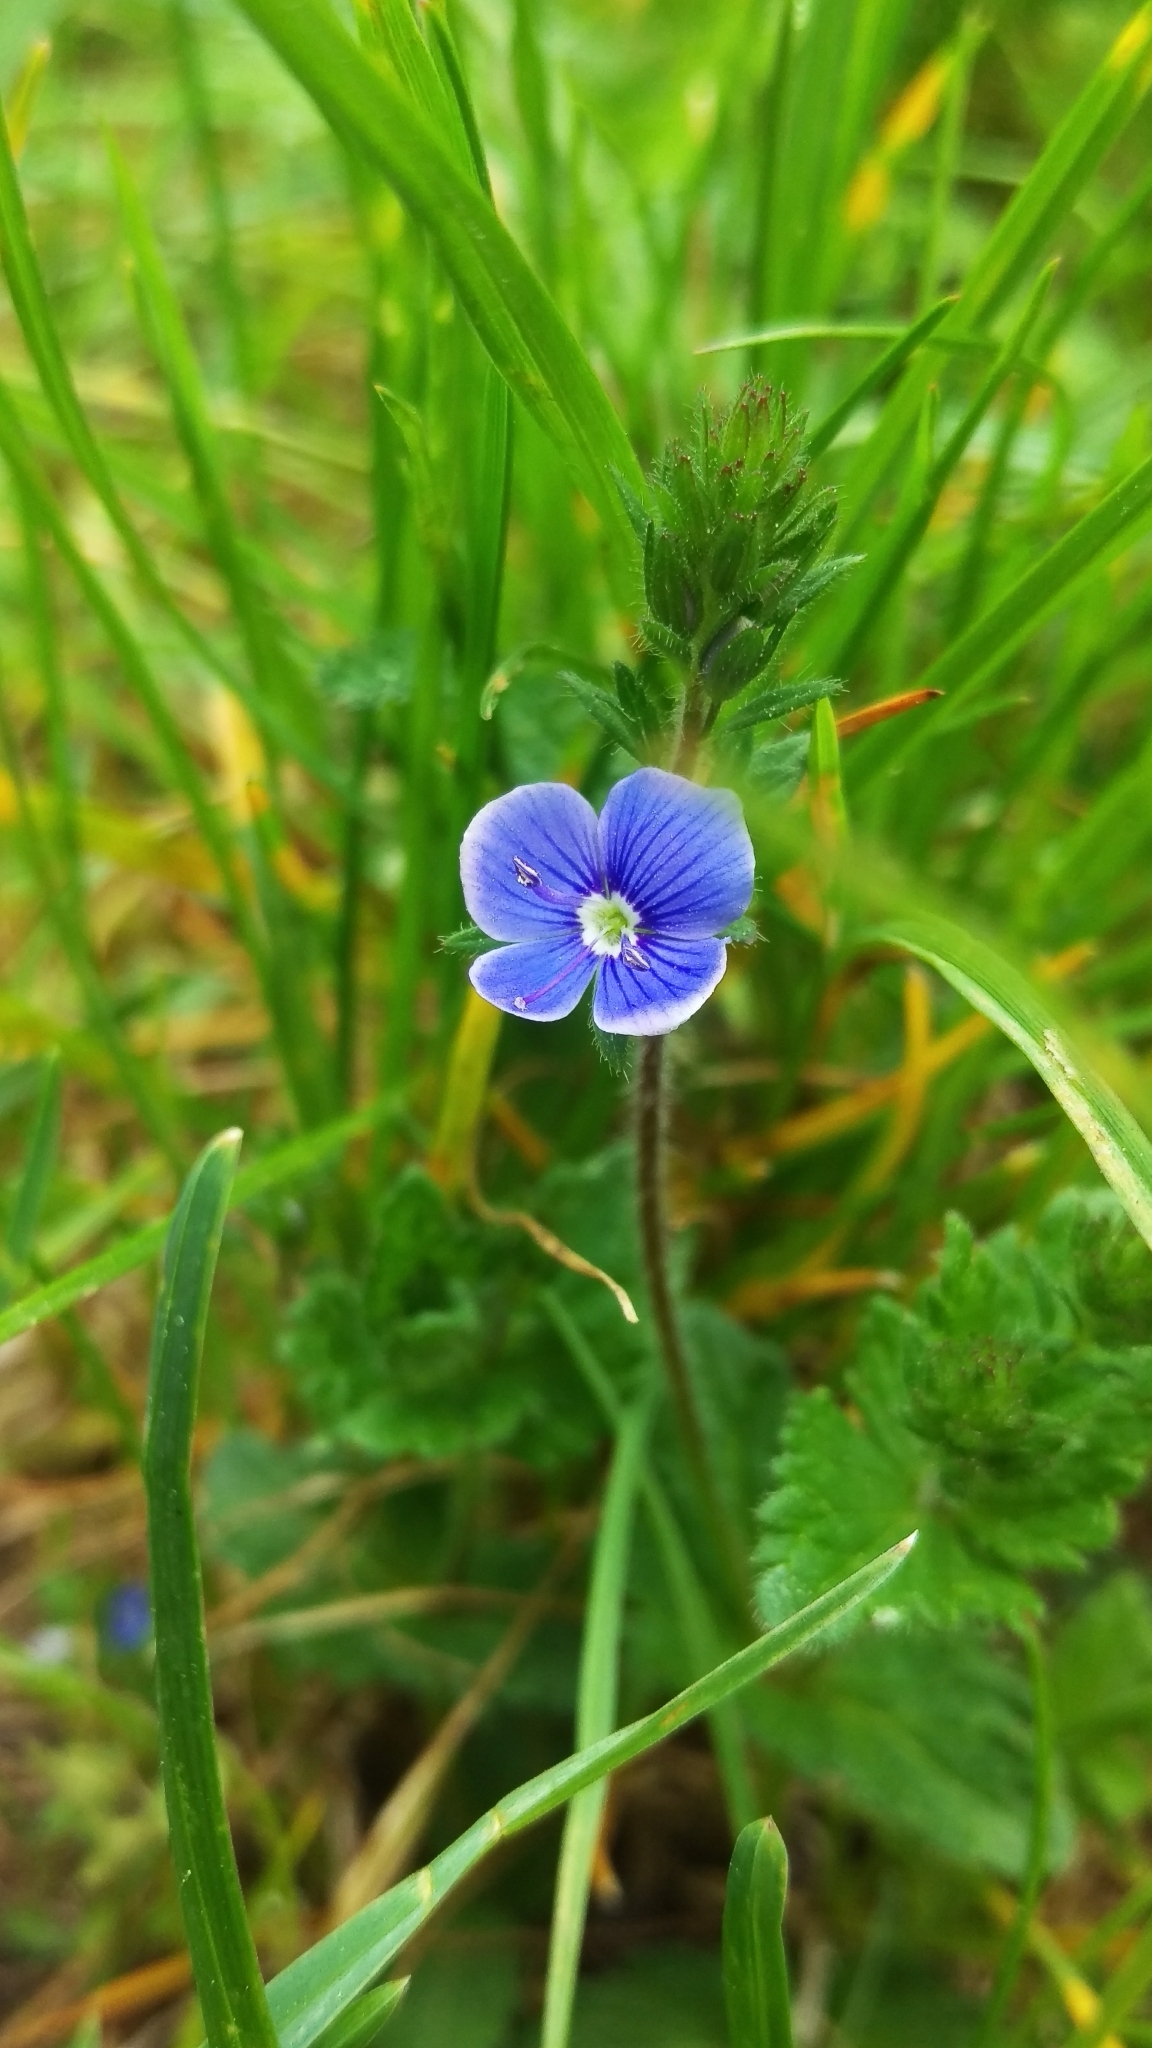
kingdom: Plantae
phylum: Tracheophyta
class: Magnoliopsida
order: Lamiales
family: Plantaginaceae
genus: Veronica
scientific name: Veronica chamaedrys
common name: Germander speedwell
